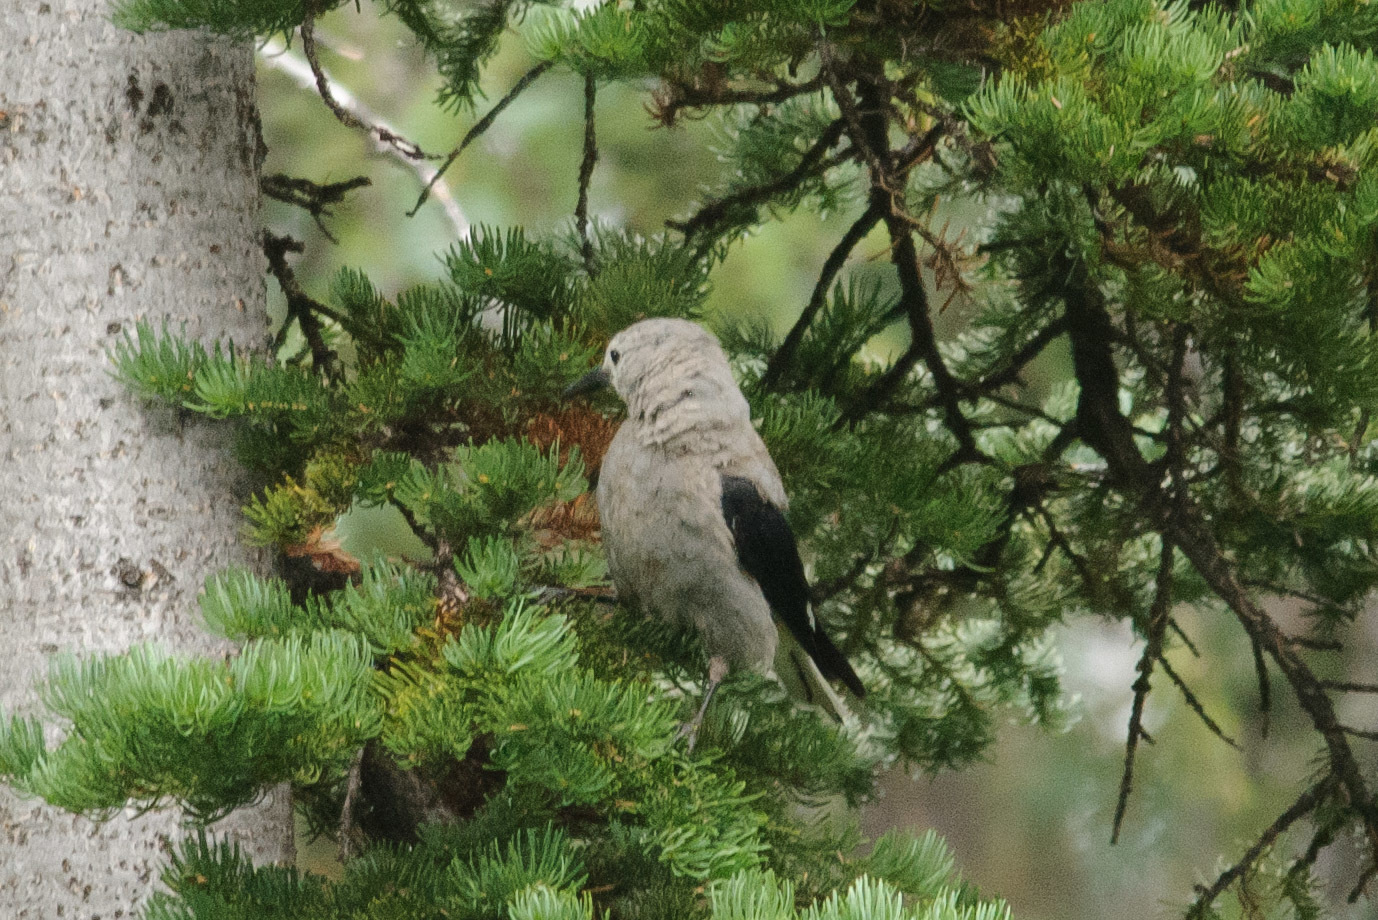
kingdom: Animalia
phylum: Chordata
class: Aves
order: Passeriformes
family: Corvidae
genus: Nucifraga
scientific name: Nucifraga columbiana
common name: Clark's nutcracker
